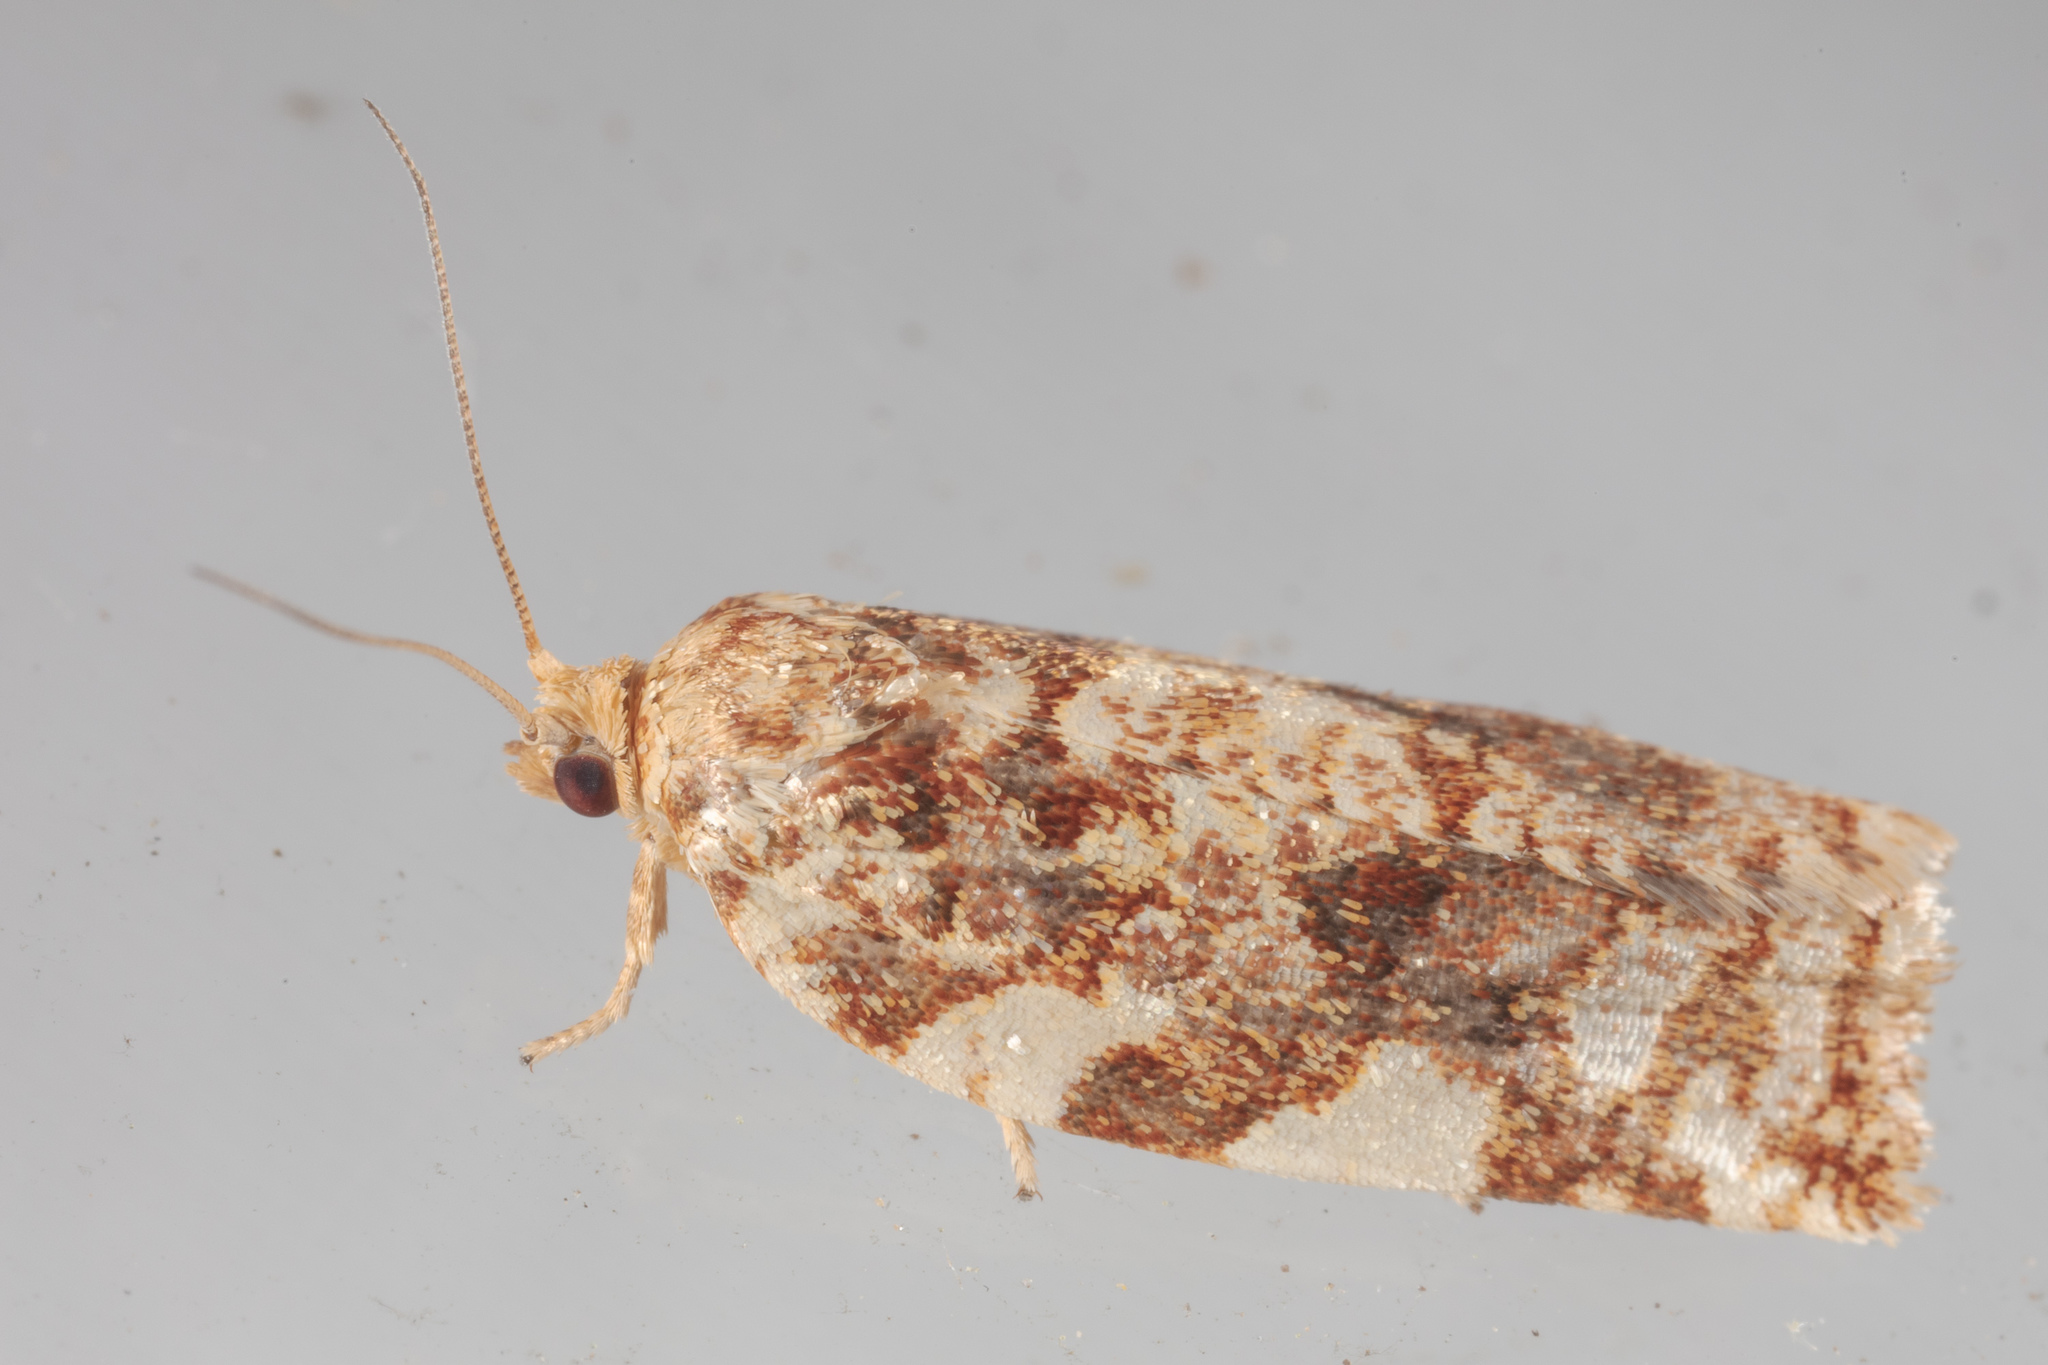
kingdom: Animalia
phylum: Arthropoda
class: Insecta
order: Lepidoptera
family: Tortricidae
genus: Archips
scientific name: Archips argyrospila
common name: Fruit-tree leafroller moth
